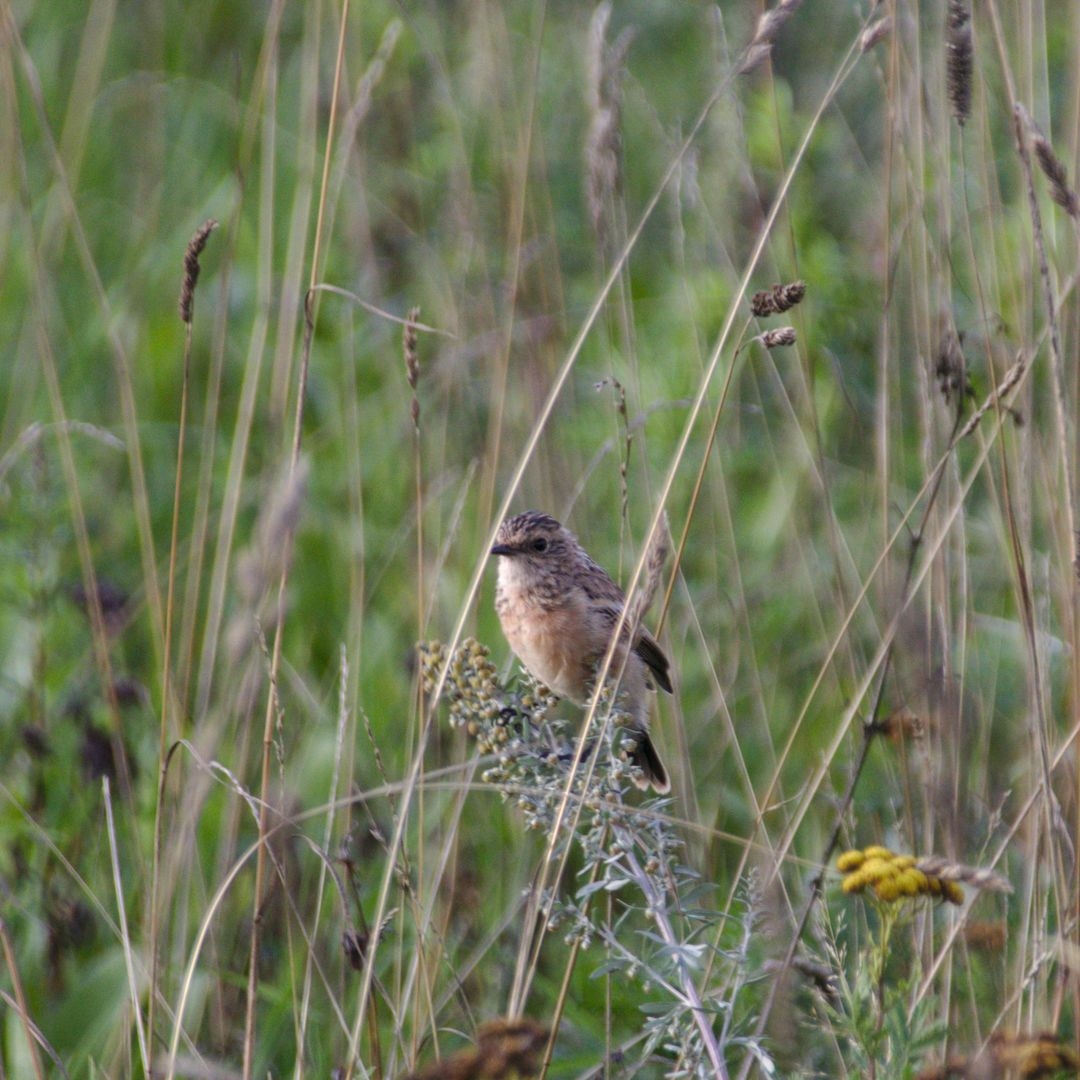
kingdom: Animalia
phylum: Chordata
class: Aves
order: Passeriformes
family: Muscicapidae
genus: Saxicola
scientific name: Saxicola maurus
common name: Siberian stonechat
